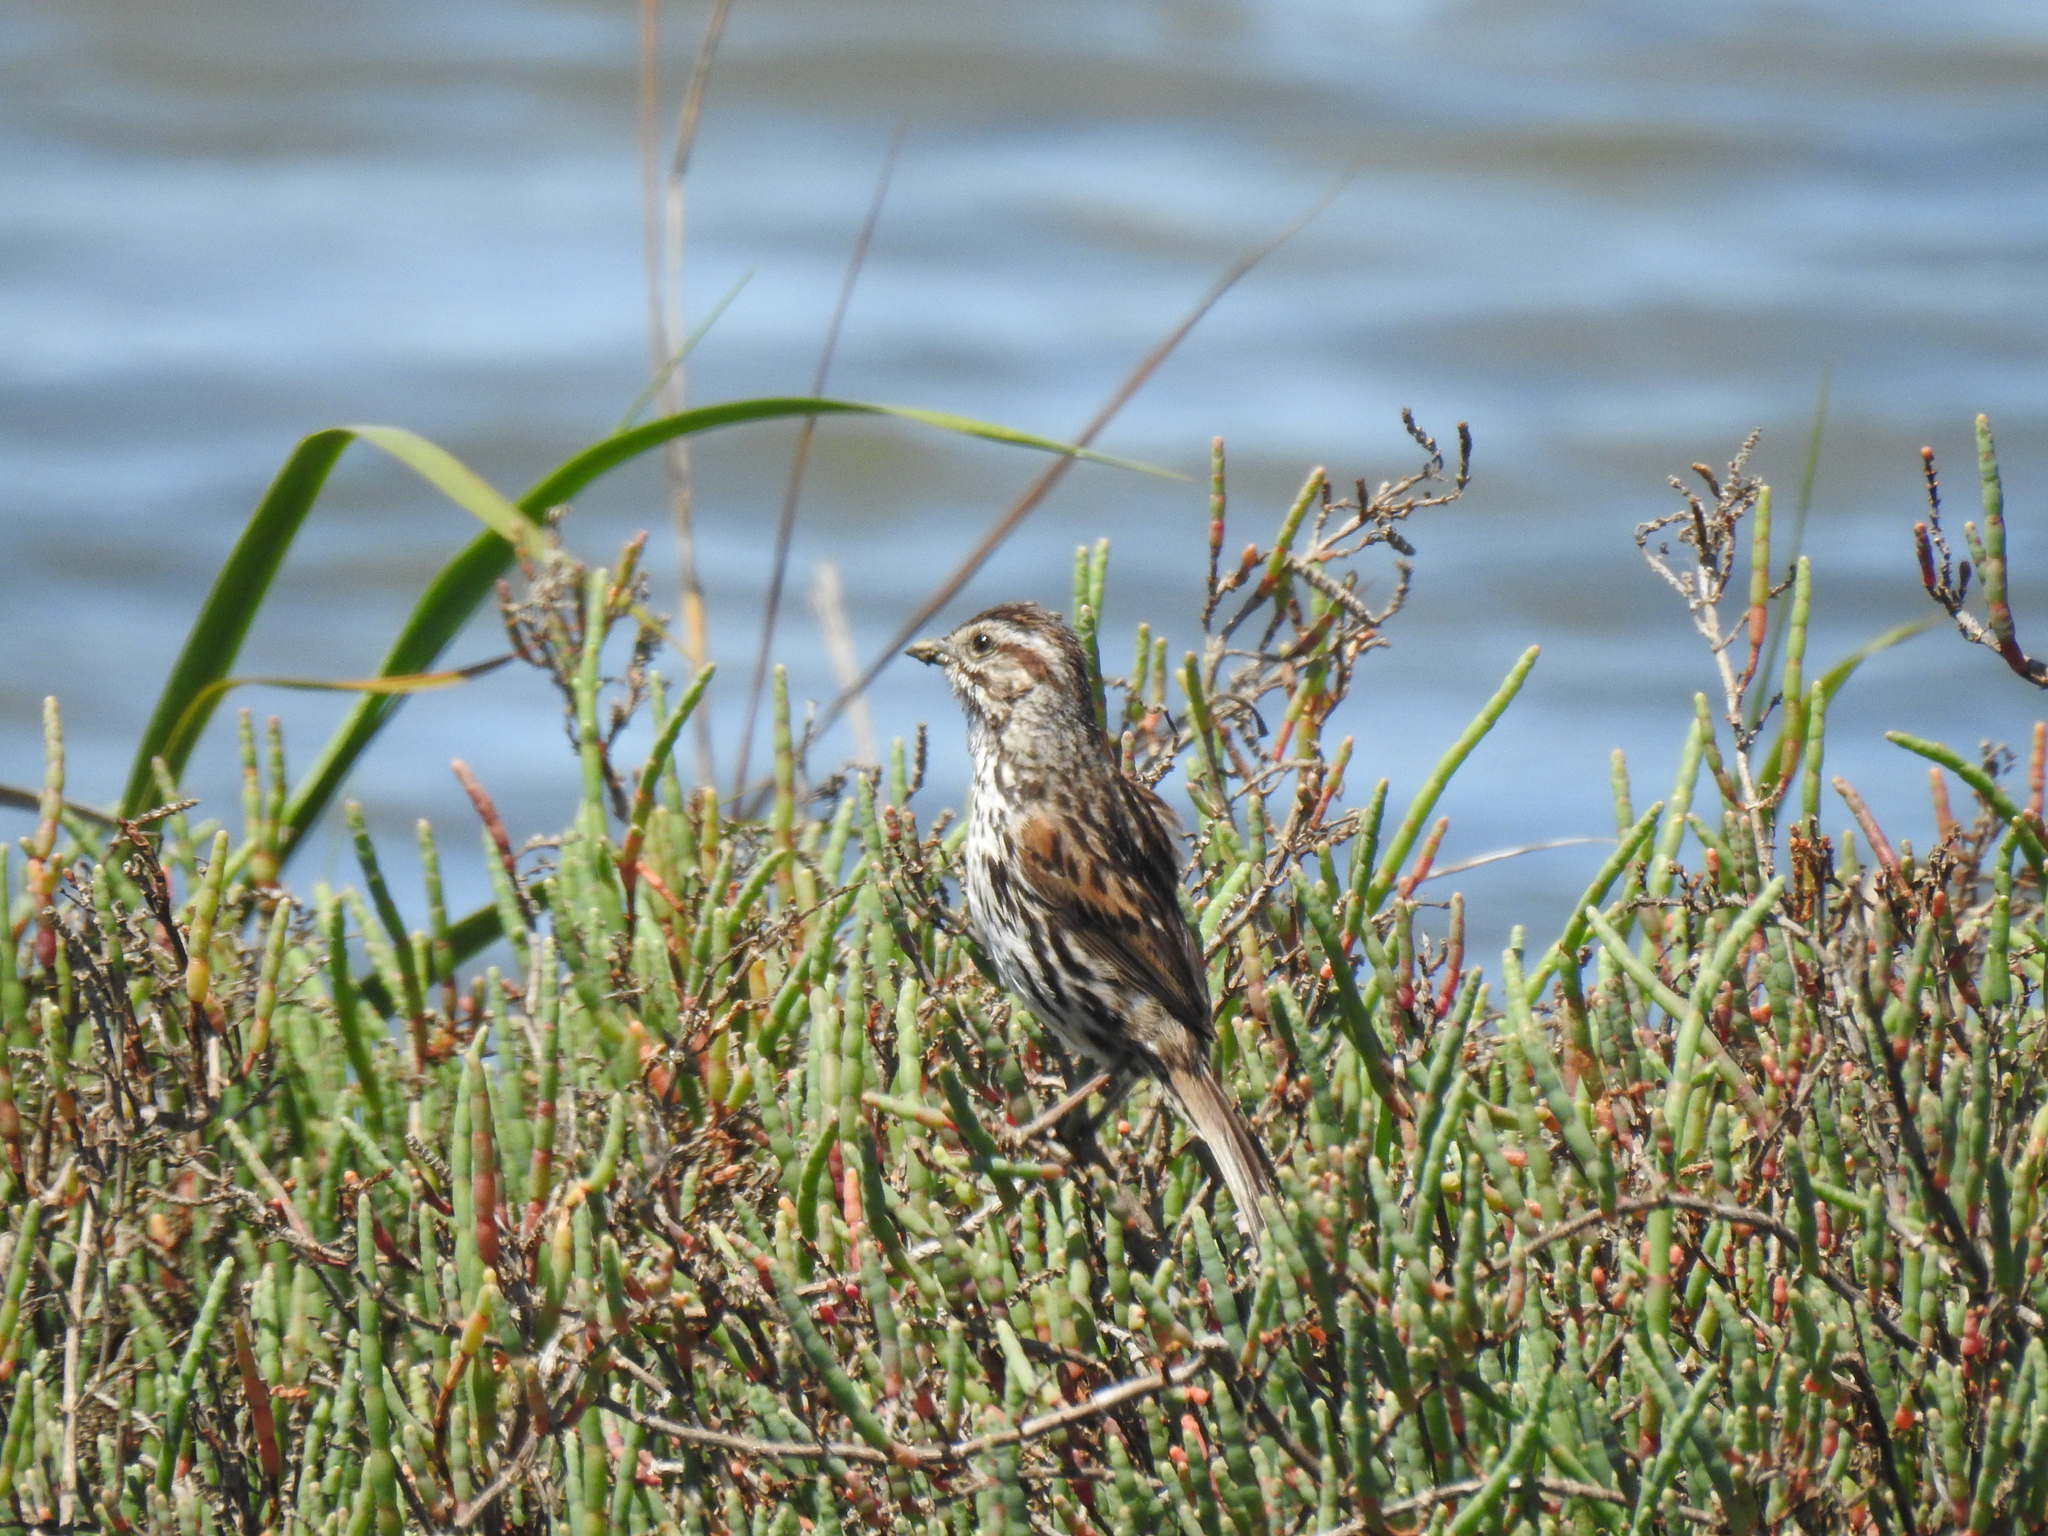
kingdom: Animalia
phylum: Chordata
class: Aves
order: Passeriformes
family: Passerellidae
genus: Melospiza
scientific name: Melospiza melodia
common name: Song sparrow
